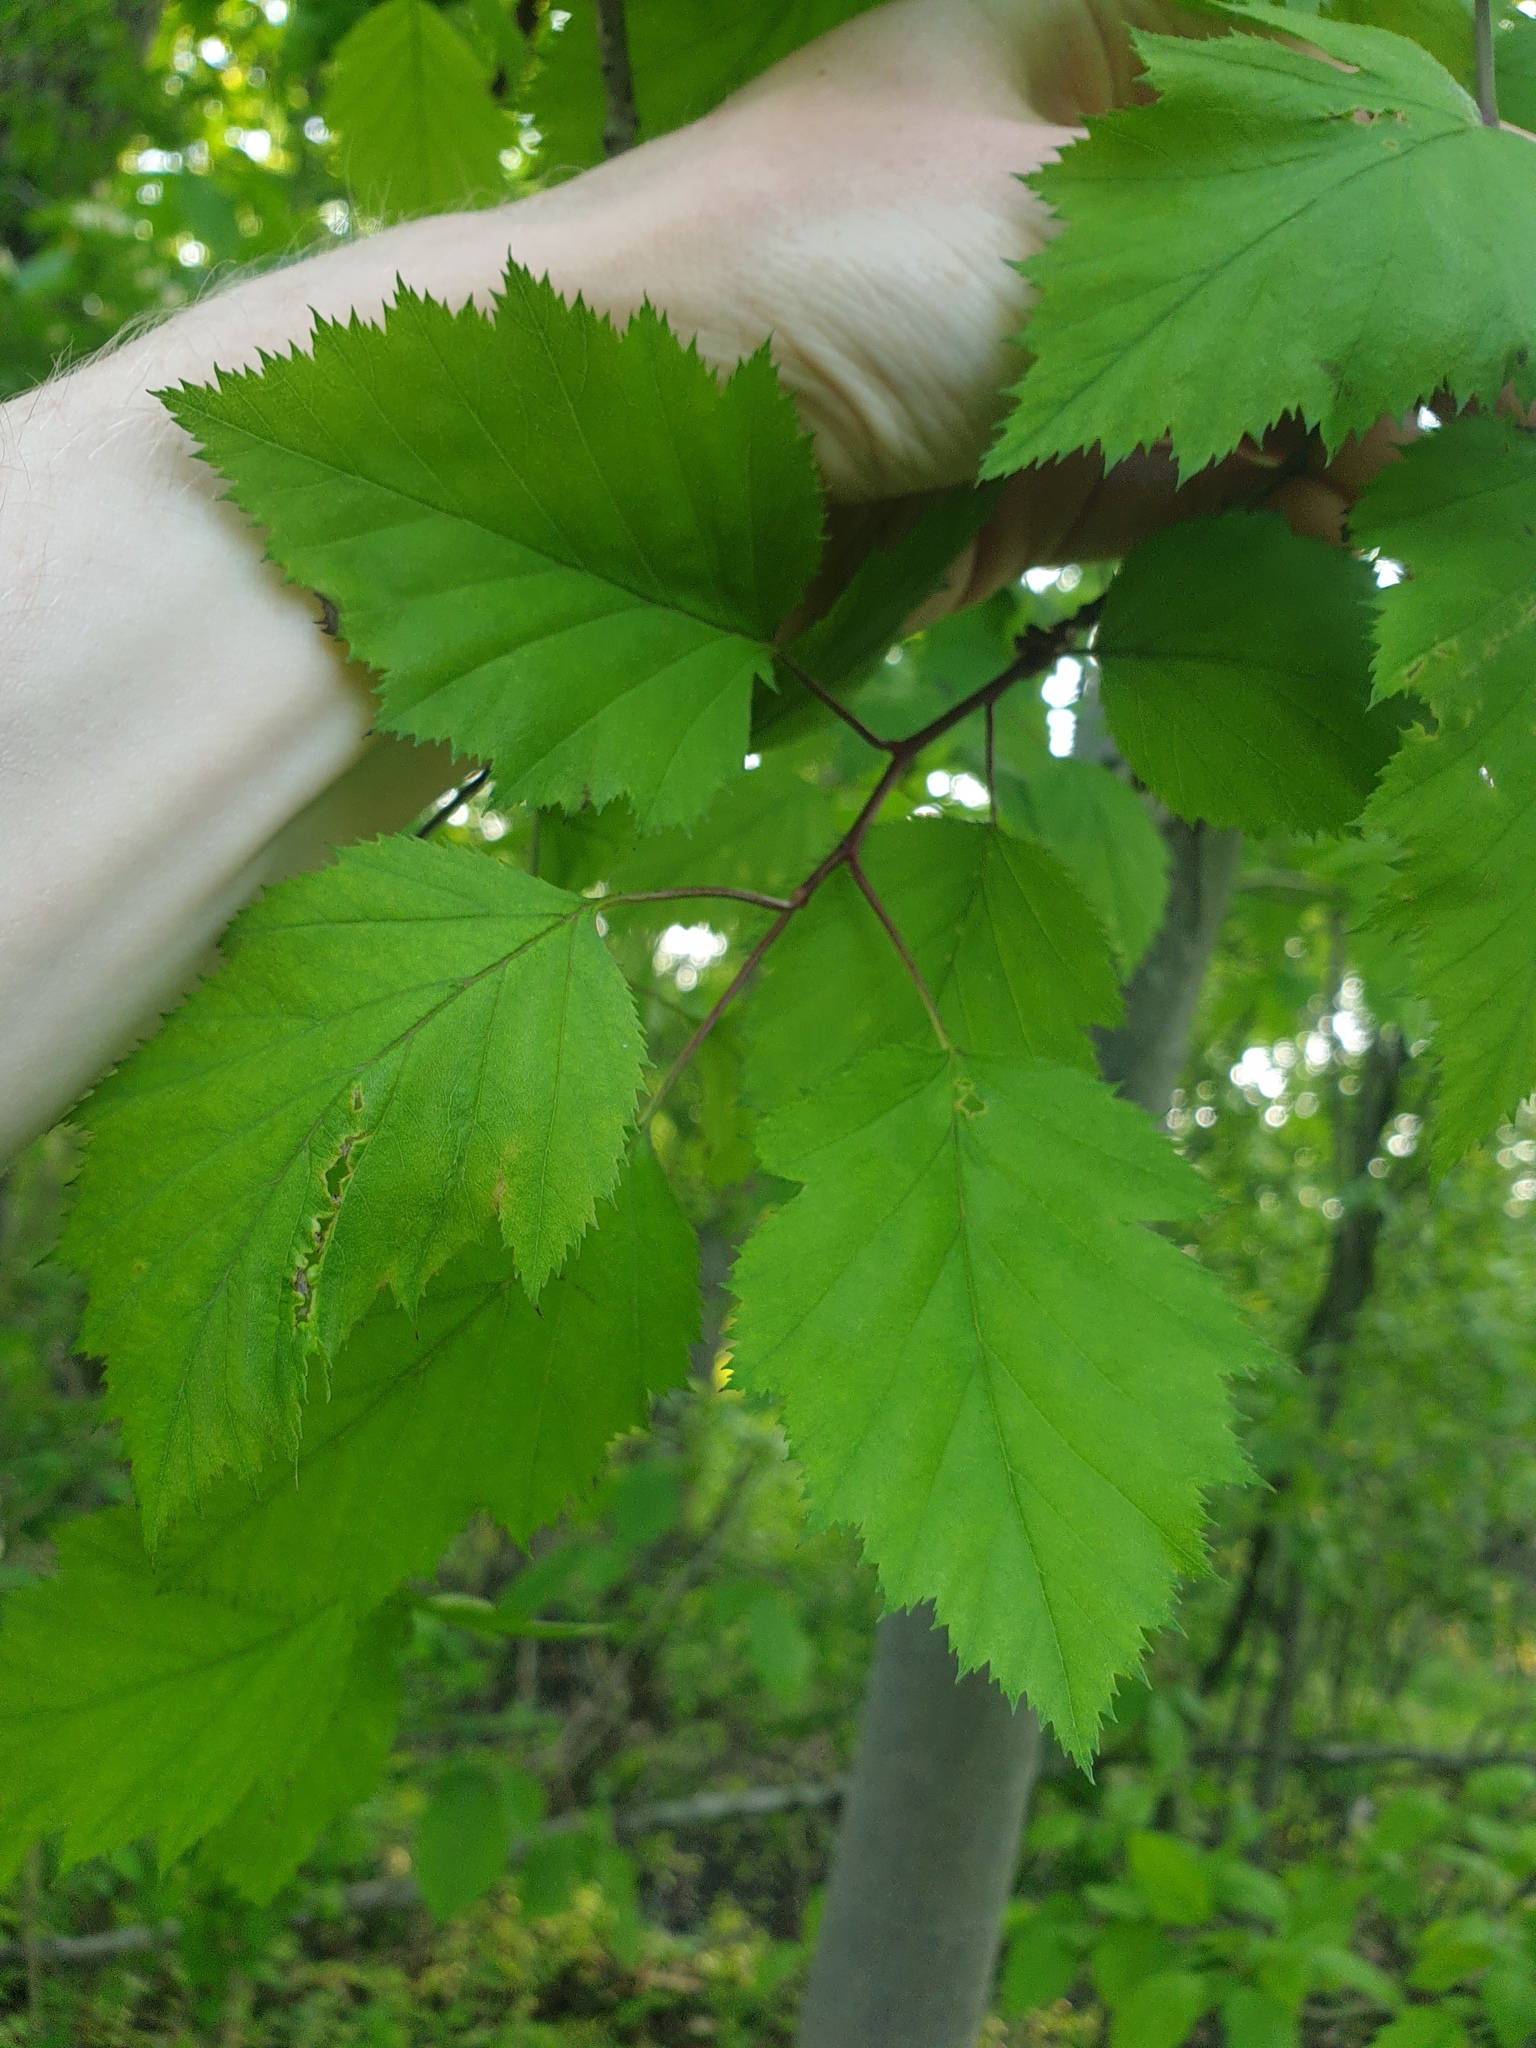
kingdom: Plantae
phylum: Tracheophyta
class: Magnoliopsida
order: Rosales
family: Rosaceae
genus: Crataegus
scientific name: Crataegus holmesiana
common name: Holmes' hawthorn
